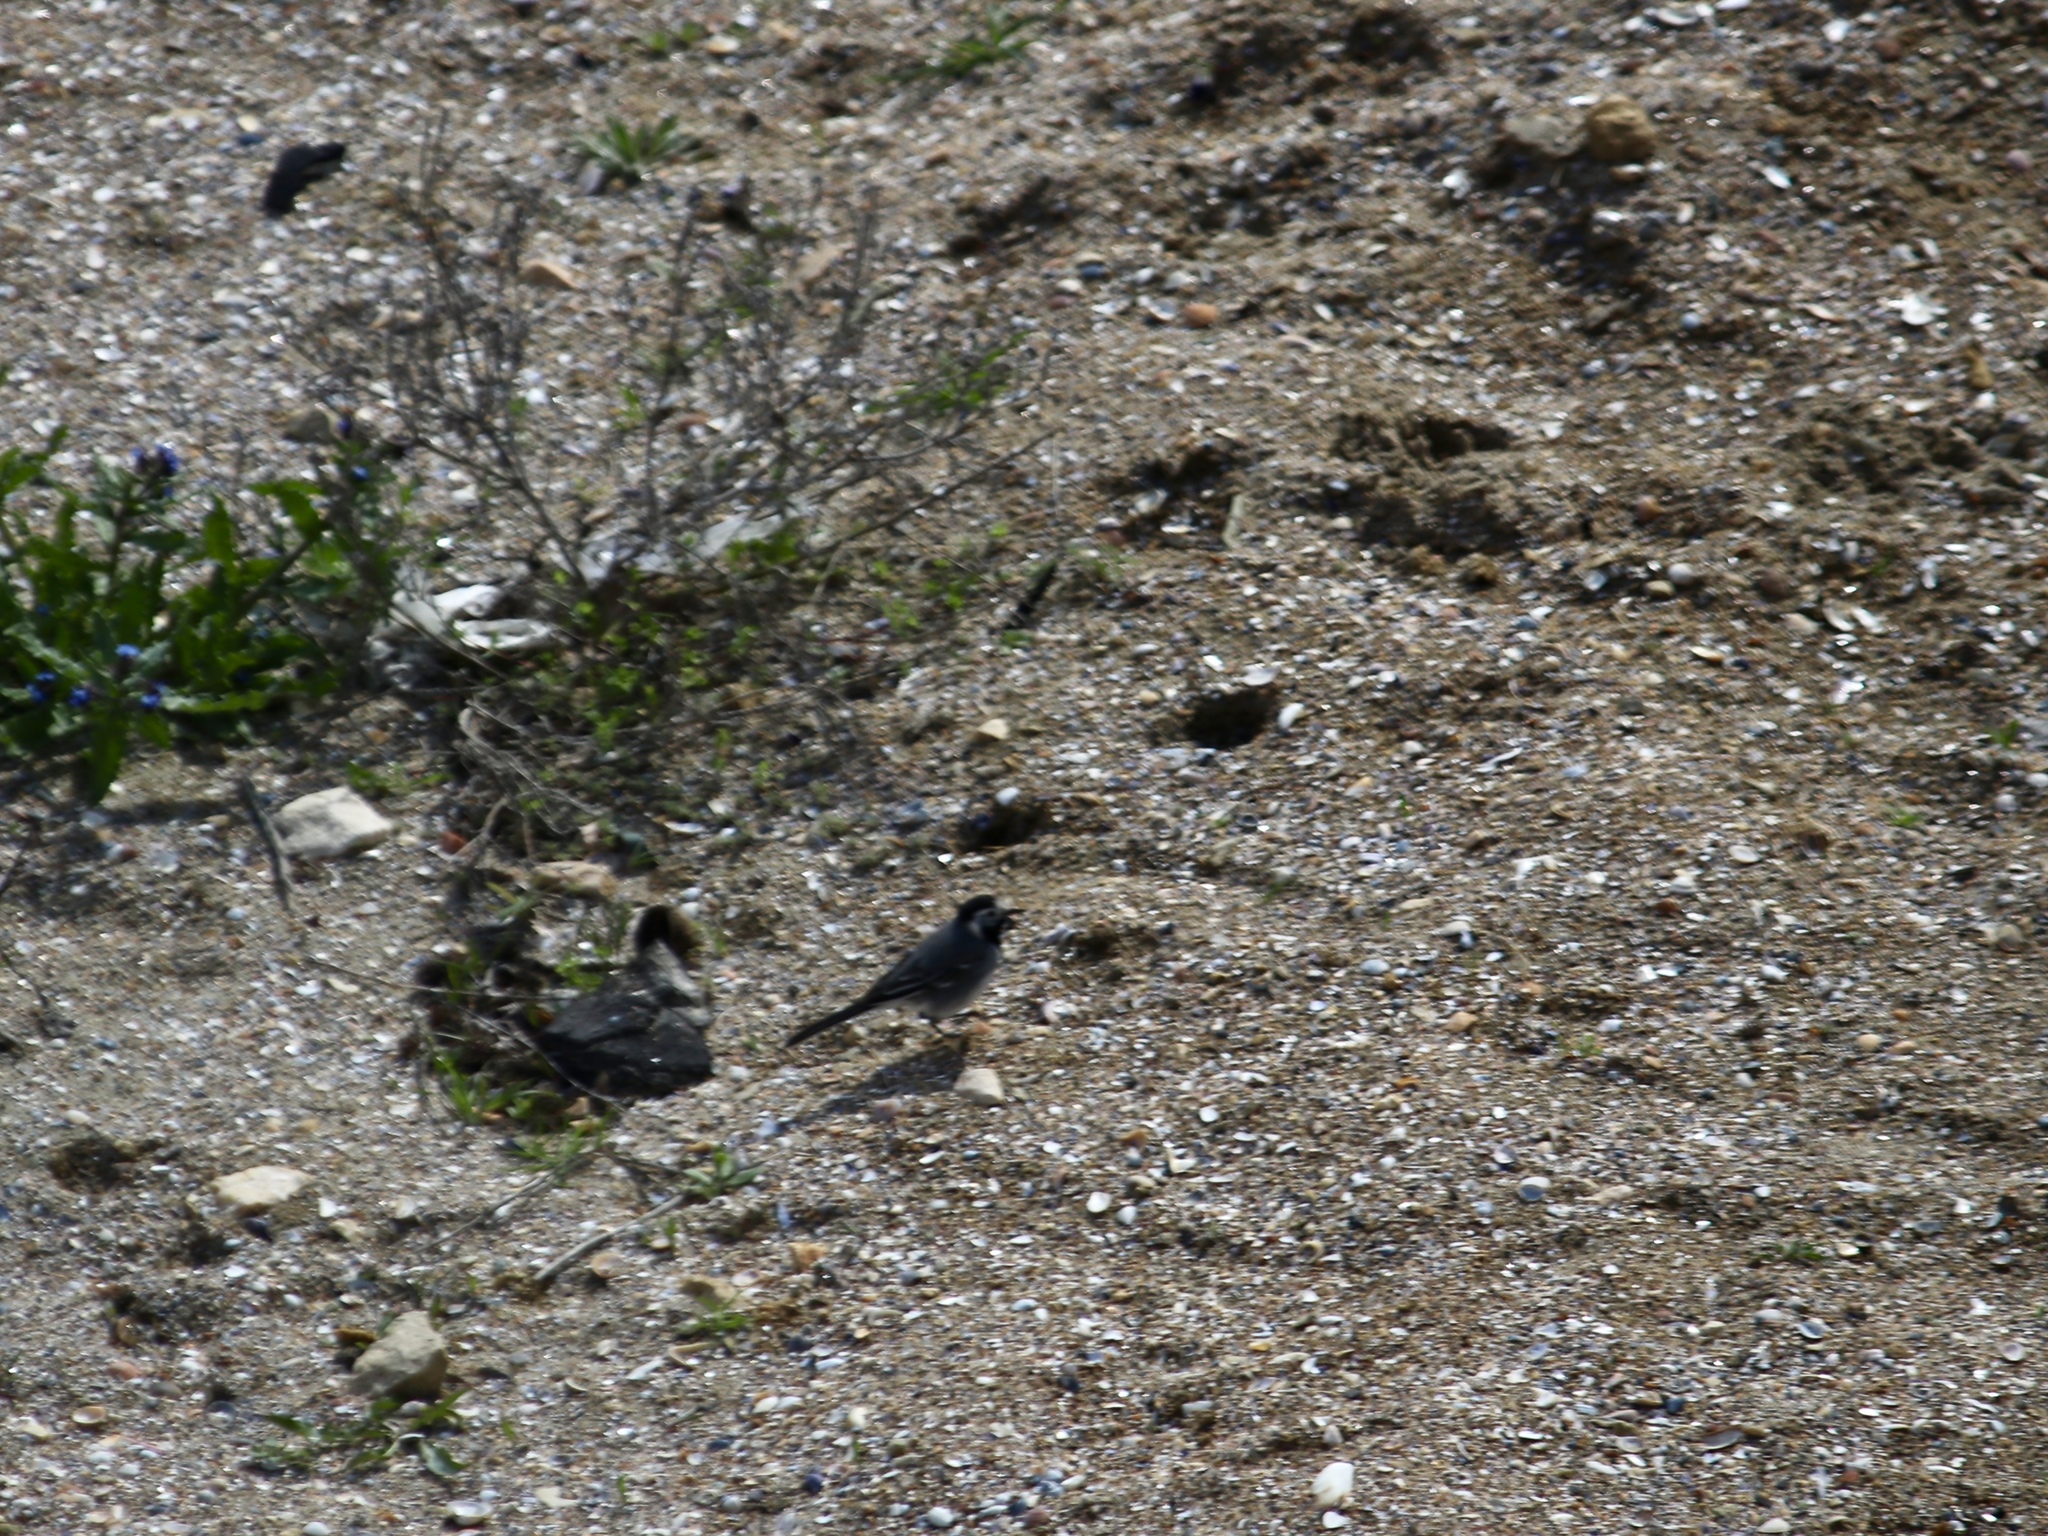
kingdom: Animalia
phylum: Chordata
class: Aves
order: Passeriformes
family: Motacillidae
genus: Motacilla
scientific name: Motacilla alba
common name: White wagtail
